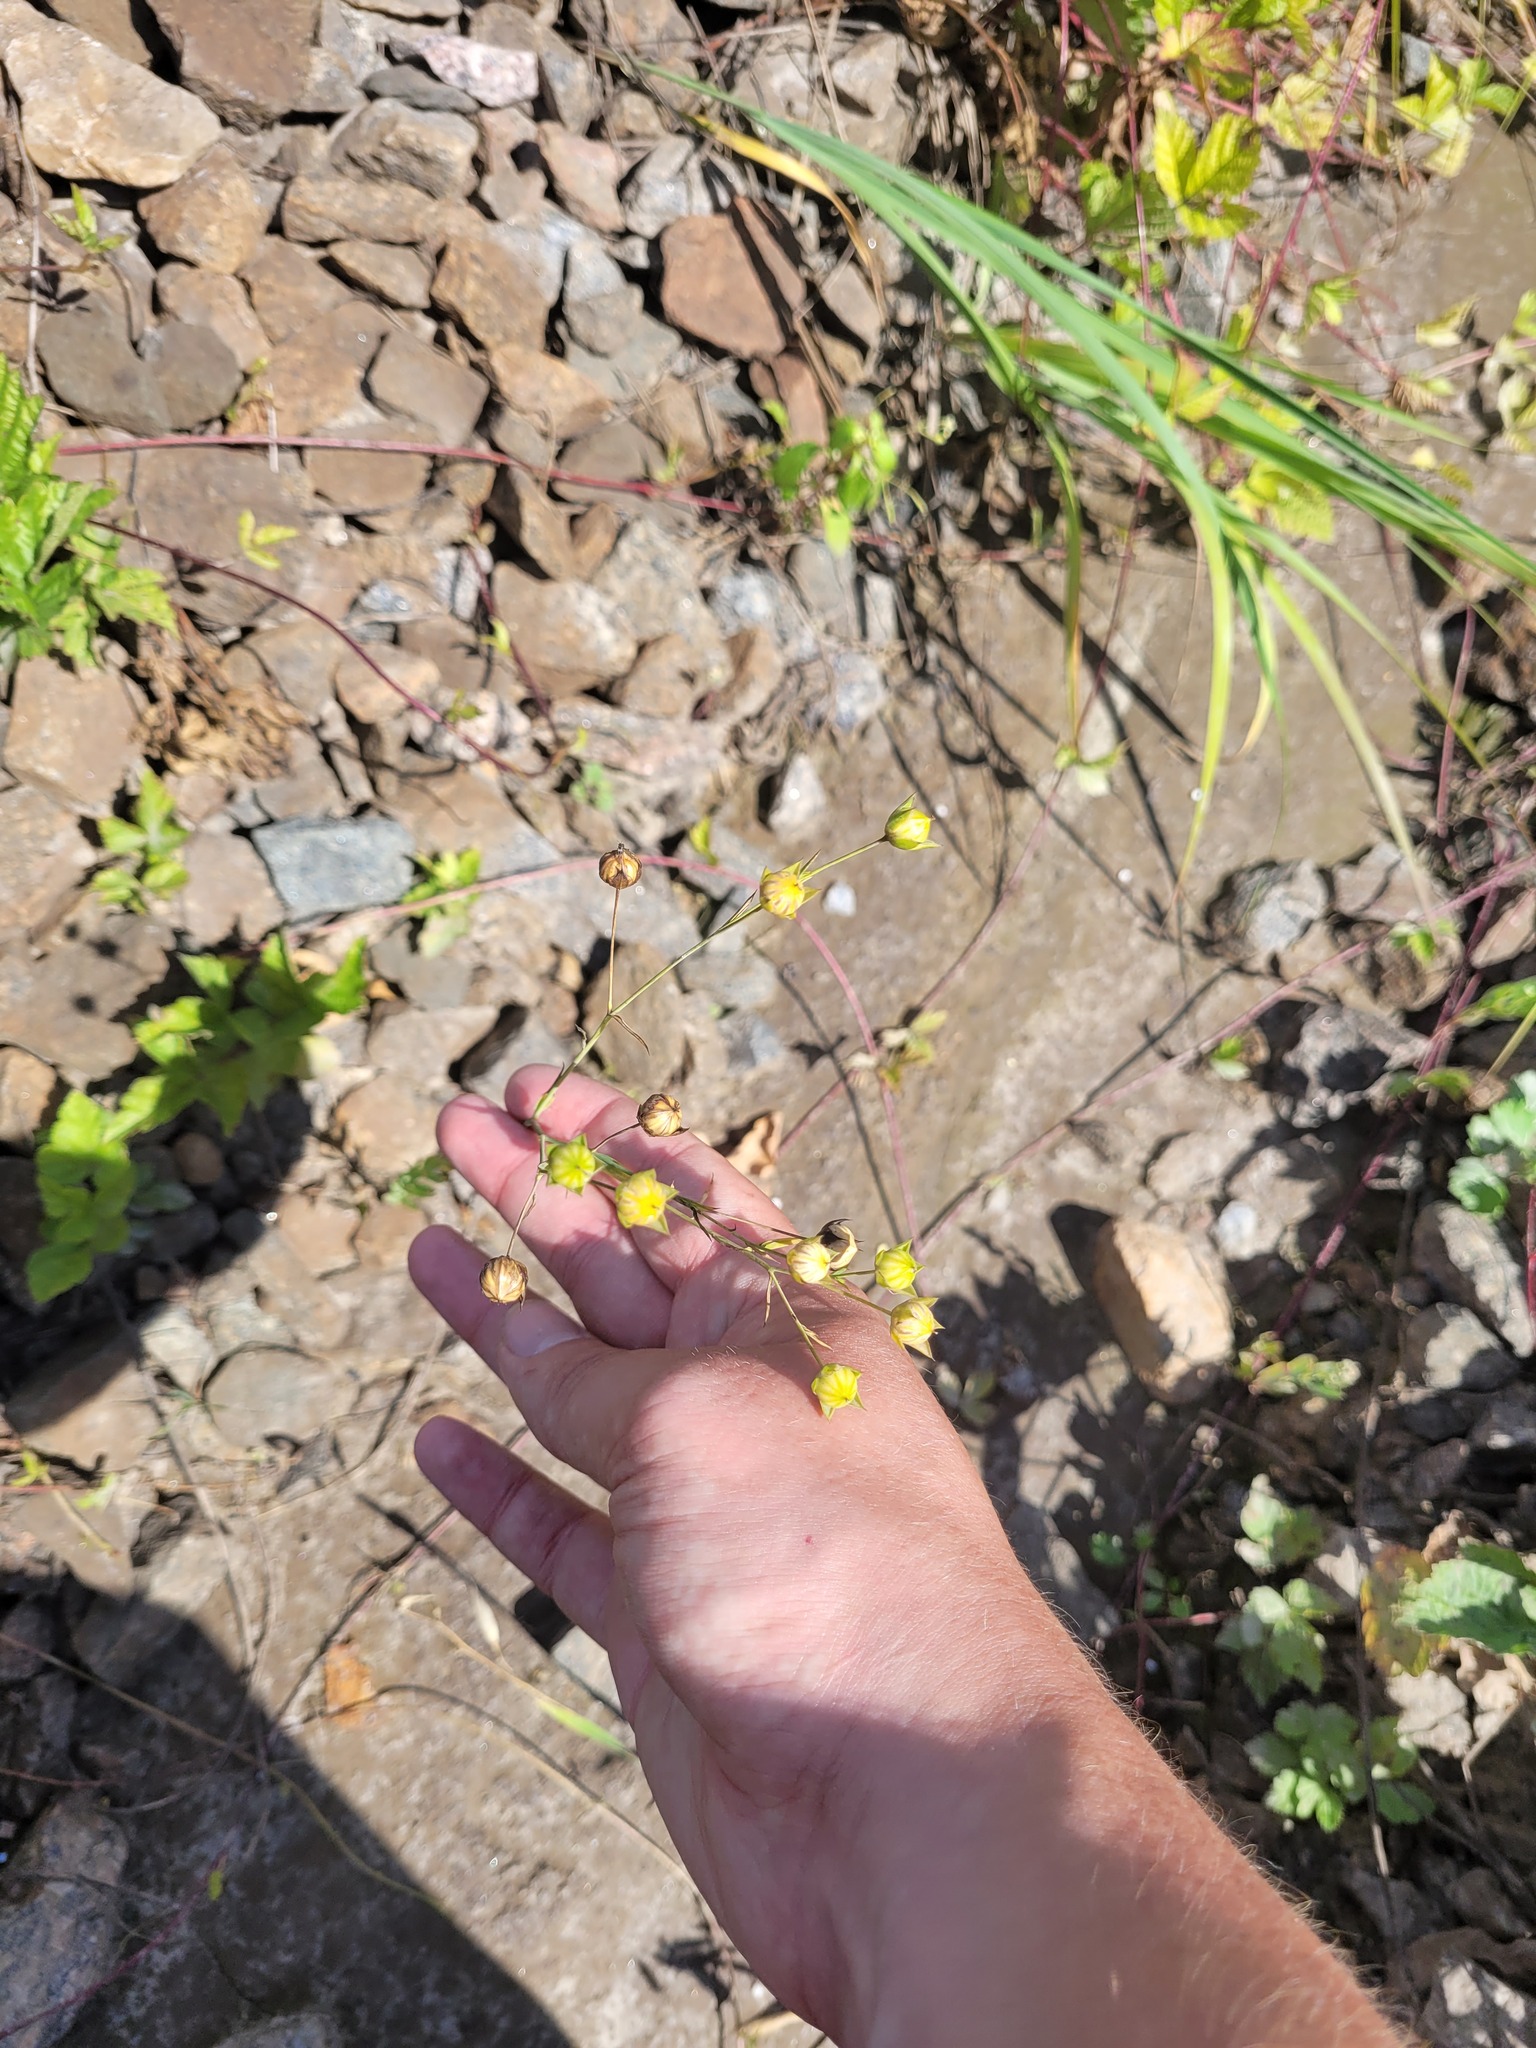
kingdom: Plantae
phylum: Tracheophyta
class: Magnoliopsida
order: Malpighiales
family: Linaceae
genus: Linum
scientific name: Linum usitatissimum
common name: Flax
